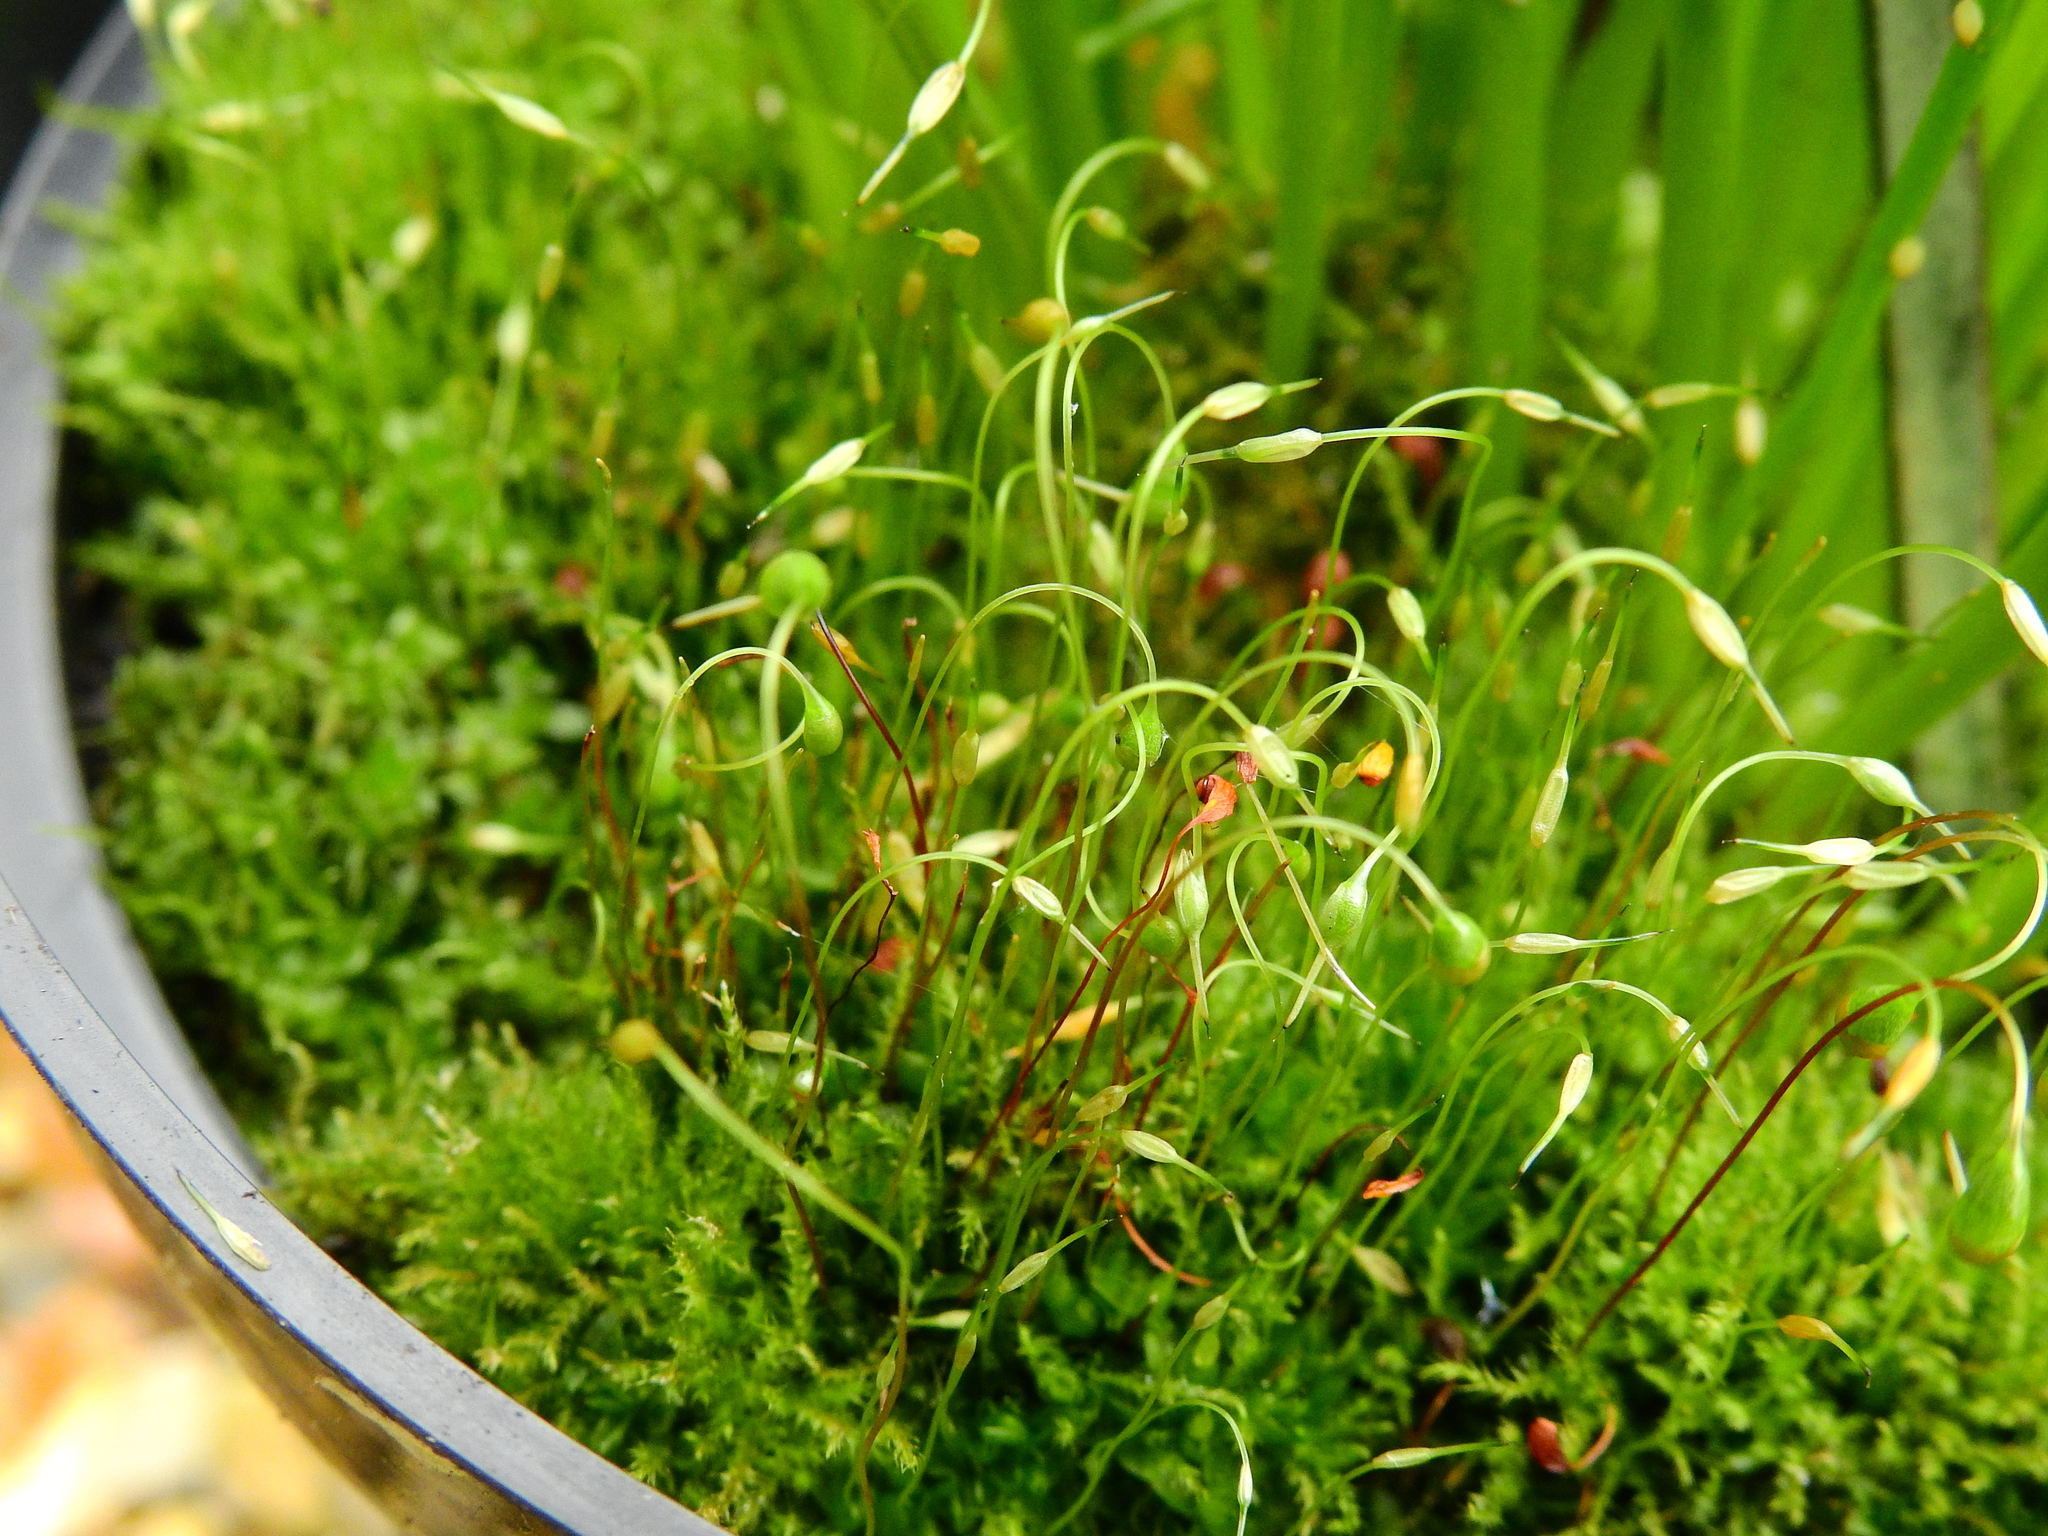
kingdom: Plantae
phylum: Bryophyta
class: Bryopsida
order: Funariales
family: Funariaceae
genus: Funaria
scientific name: Funaria hygrometrica
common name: Common cord moss
